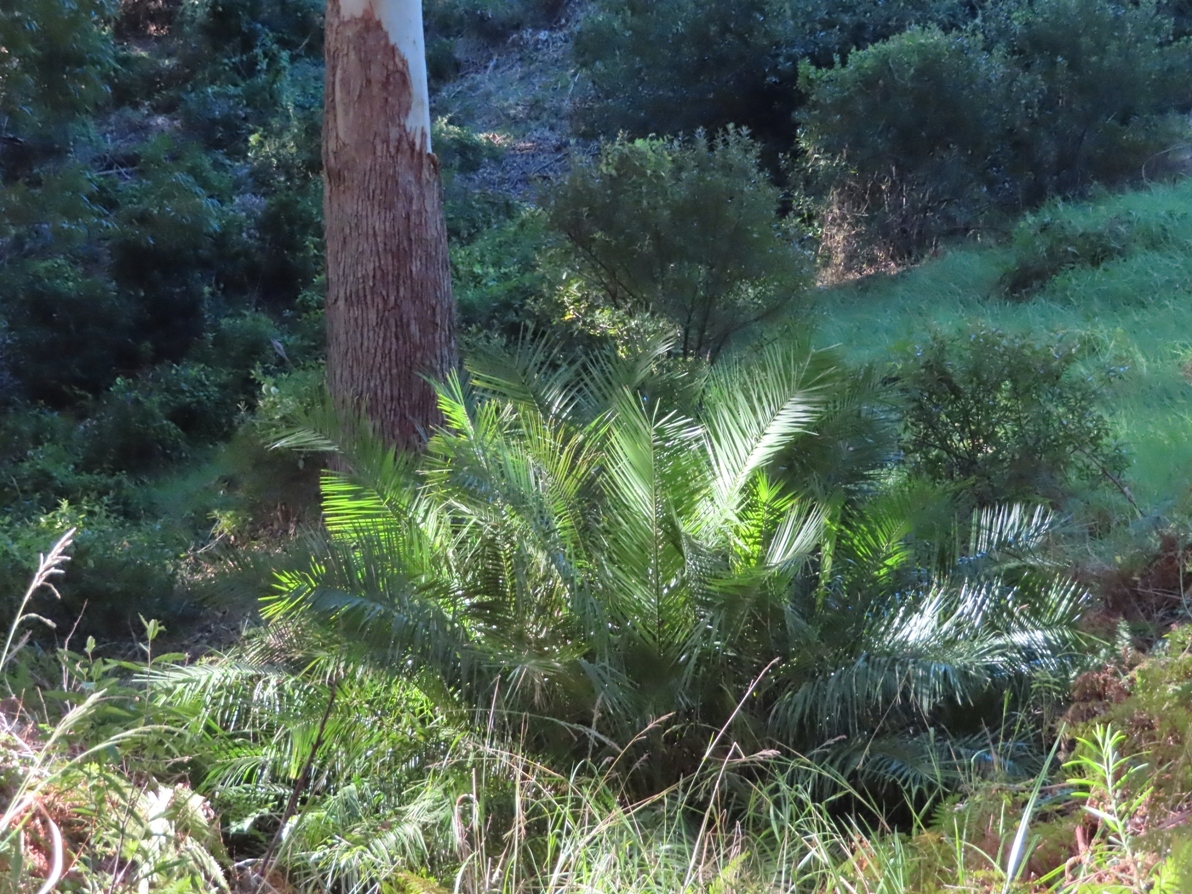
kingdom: Plantae
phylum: Tracheophyta
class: Liliopsida
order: Arecales
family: Arecaceae
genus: Phoenix
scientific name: Phoenix reclinata
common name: Senegal date palm
